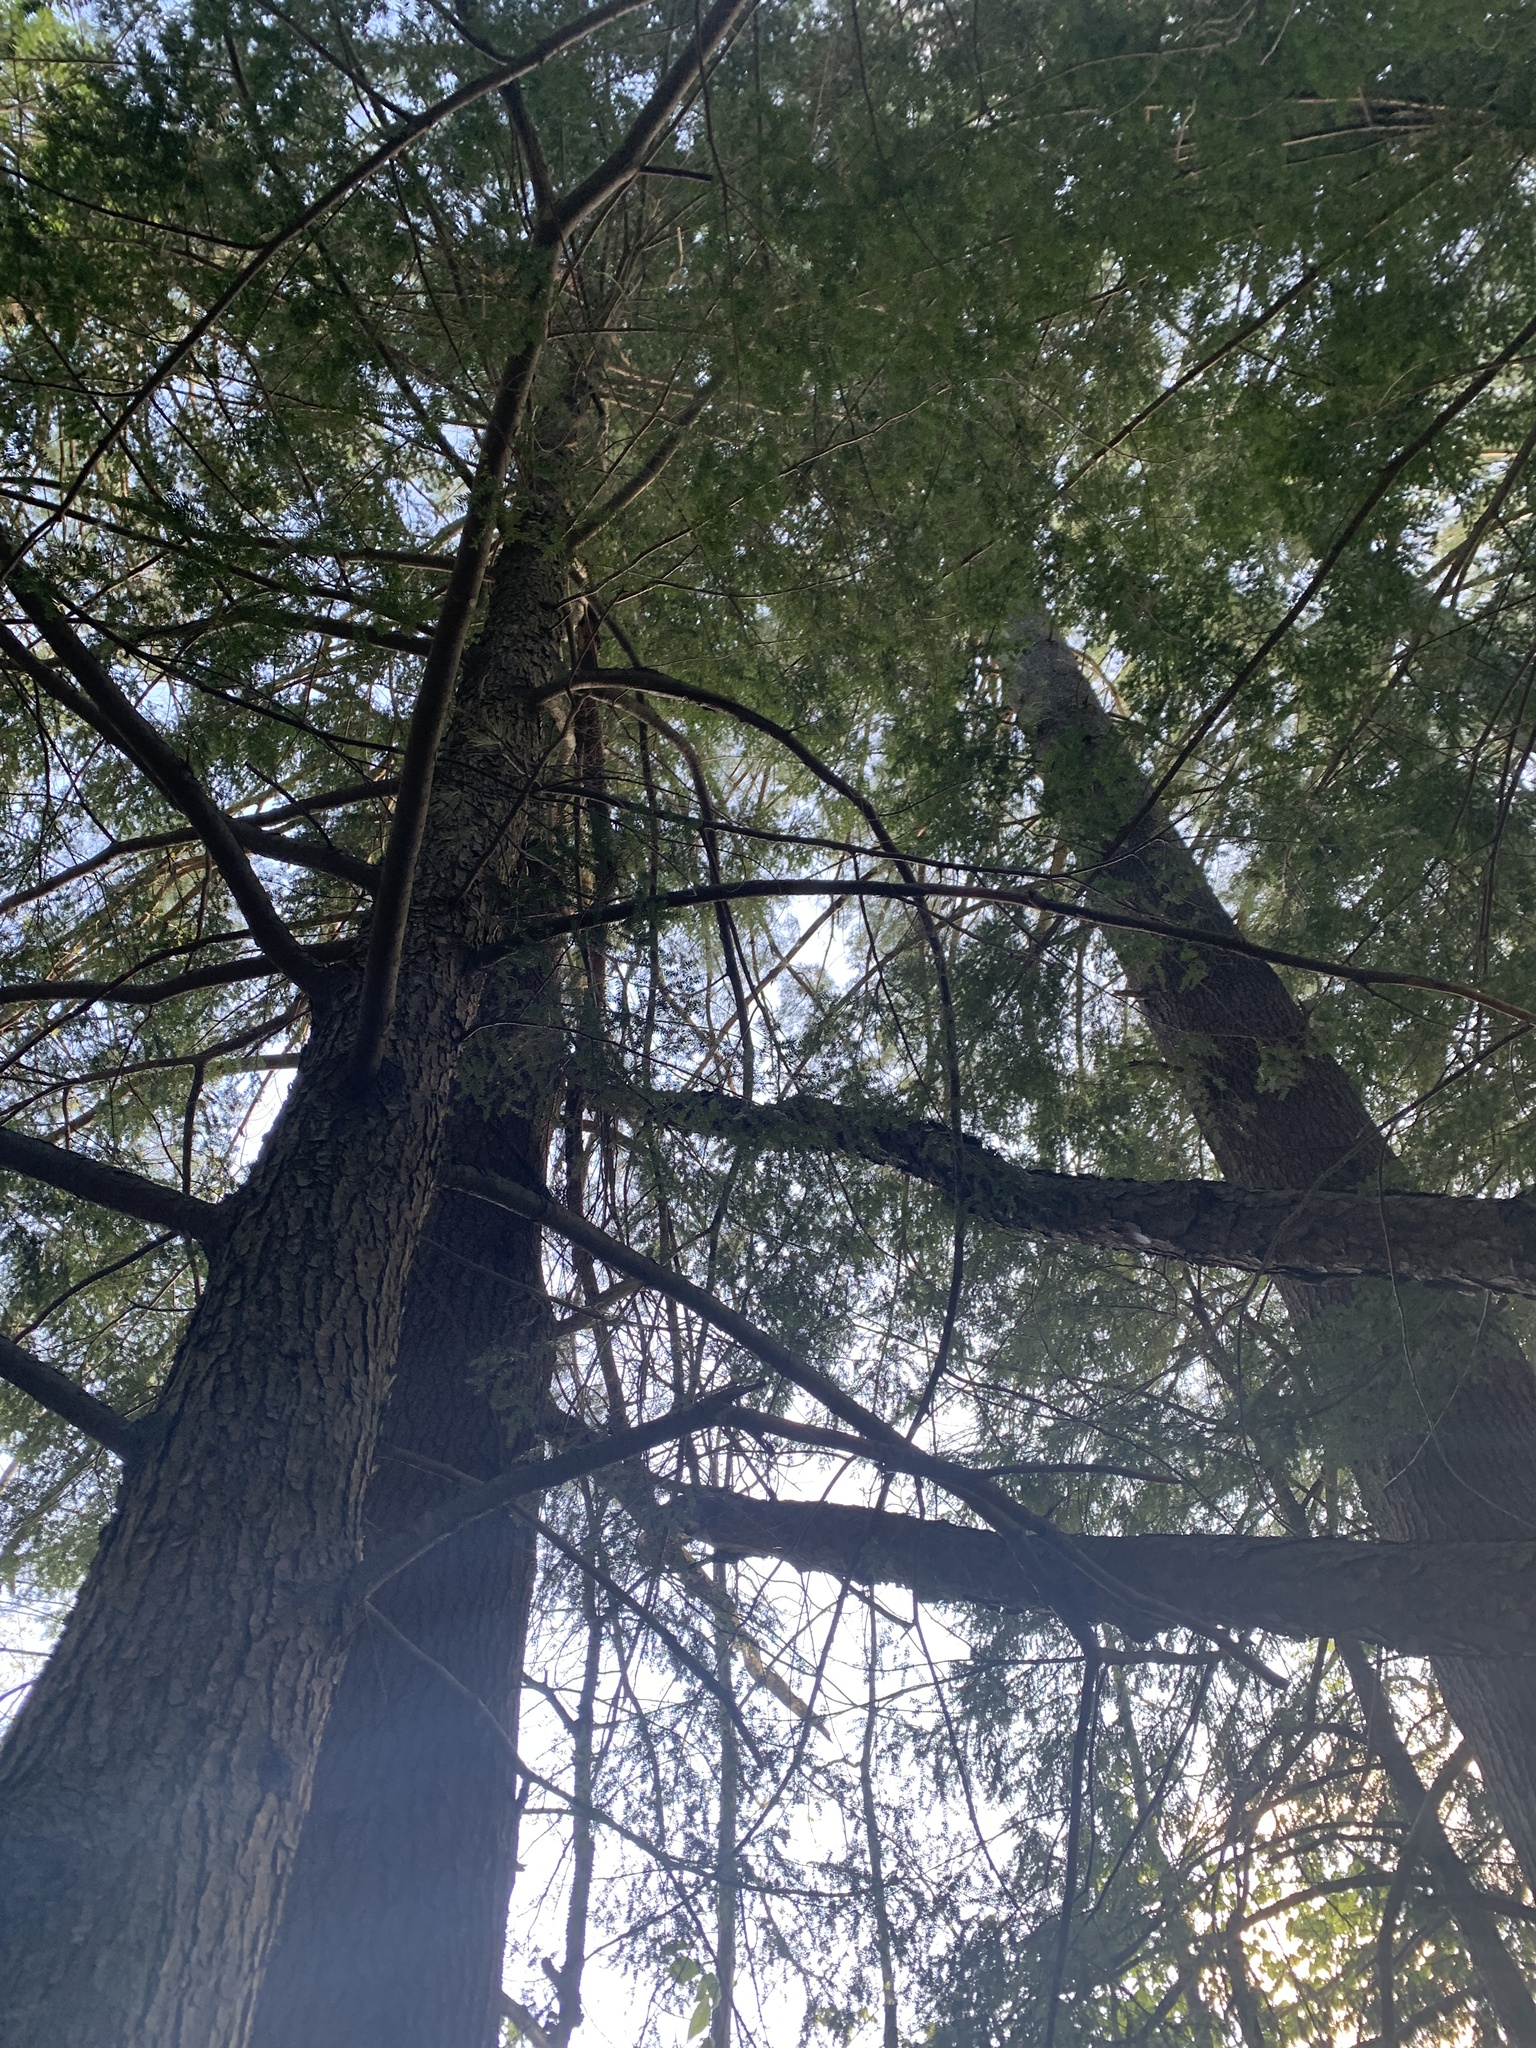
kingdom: Plantae
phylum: Tracheophyta
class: Pinopsida
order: Pinales
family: Pinaceae
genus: Pinus
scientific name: Pinus strobus
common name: Weymouth pine
